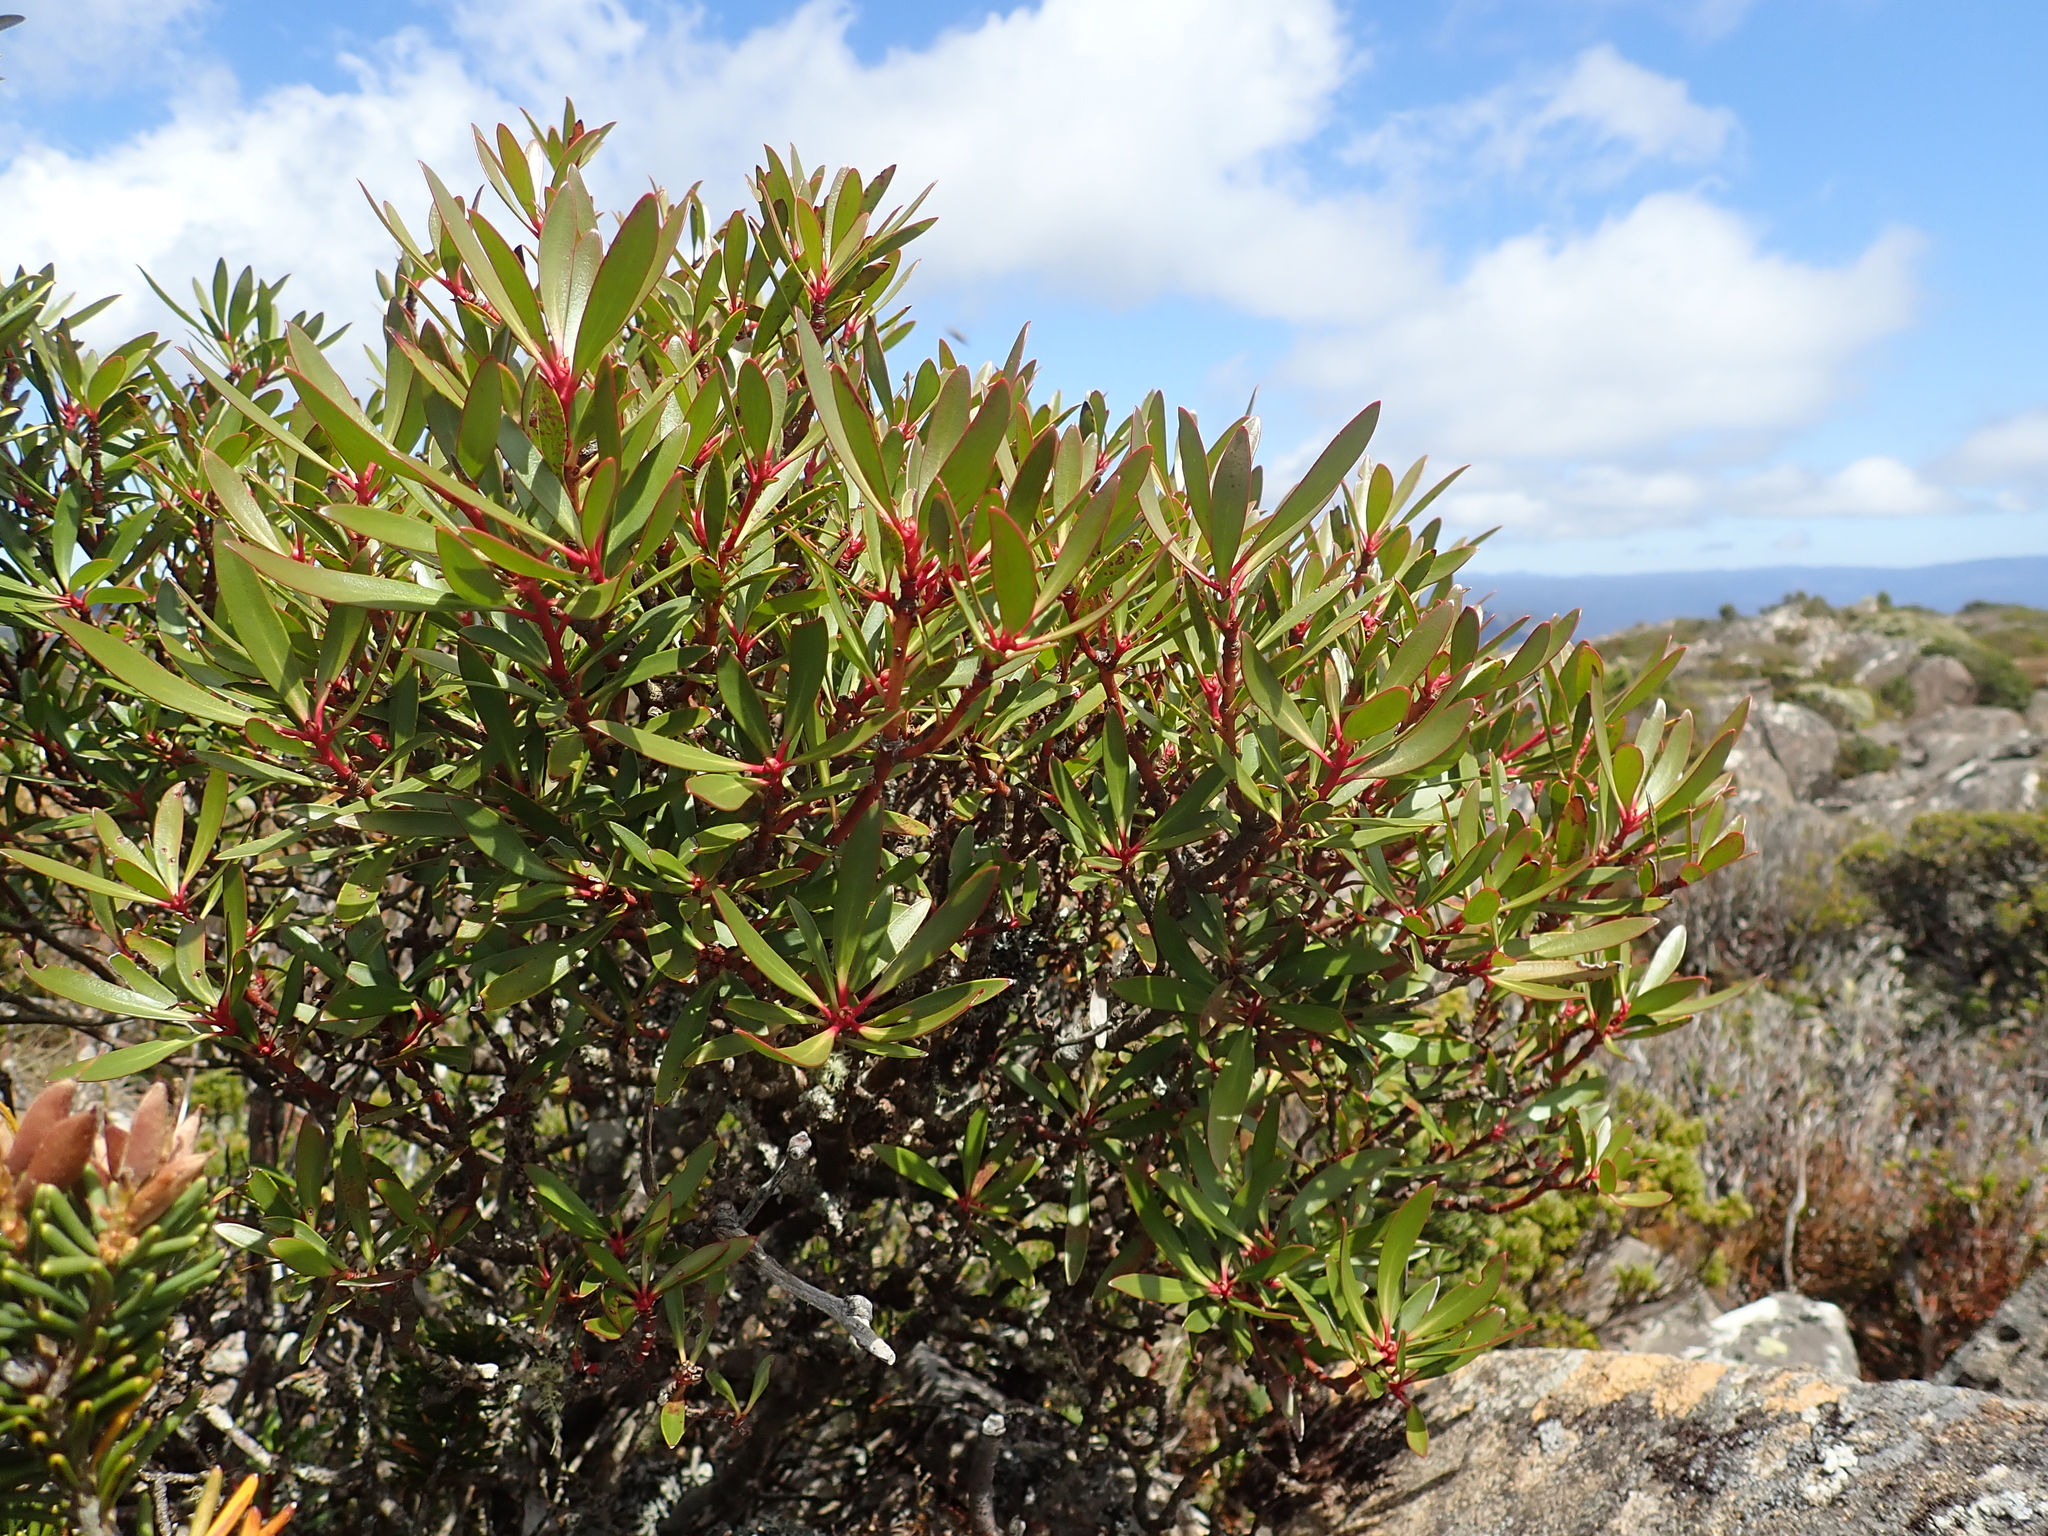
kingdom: Plantae
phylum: Tracheophyta
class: Magnoliopsida
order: Canellales
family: Winteraceae
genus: Drimys
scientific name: Drimys aromatica
